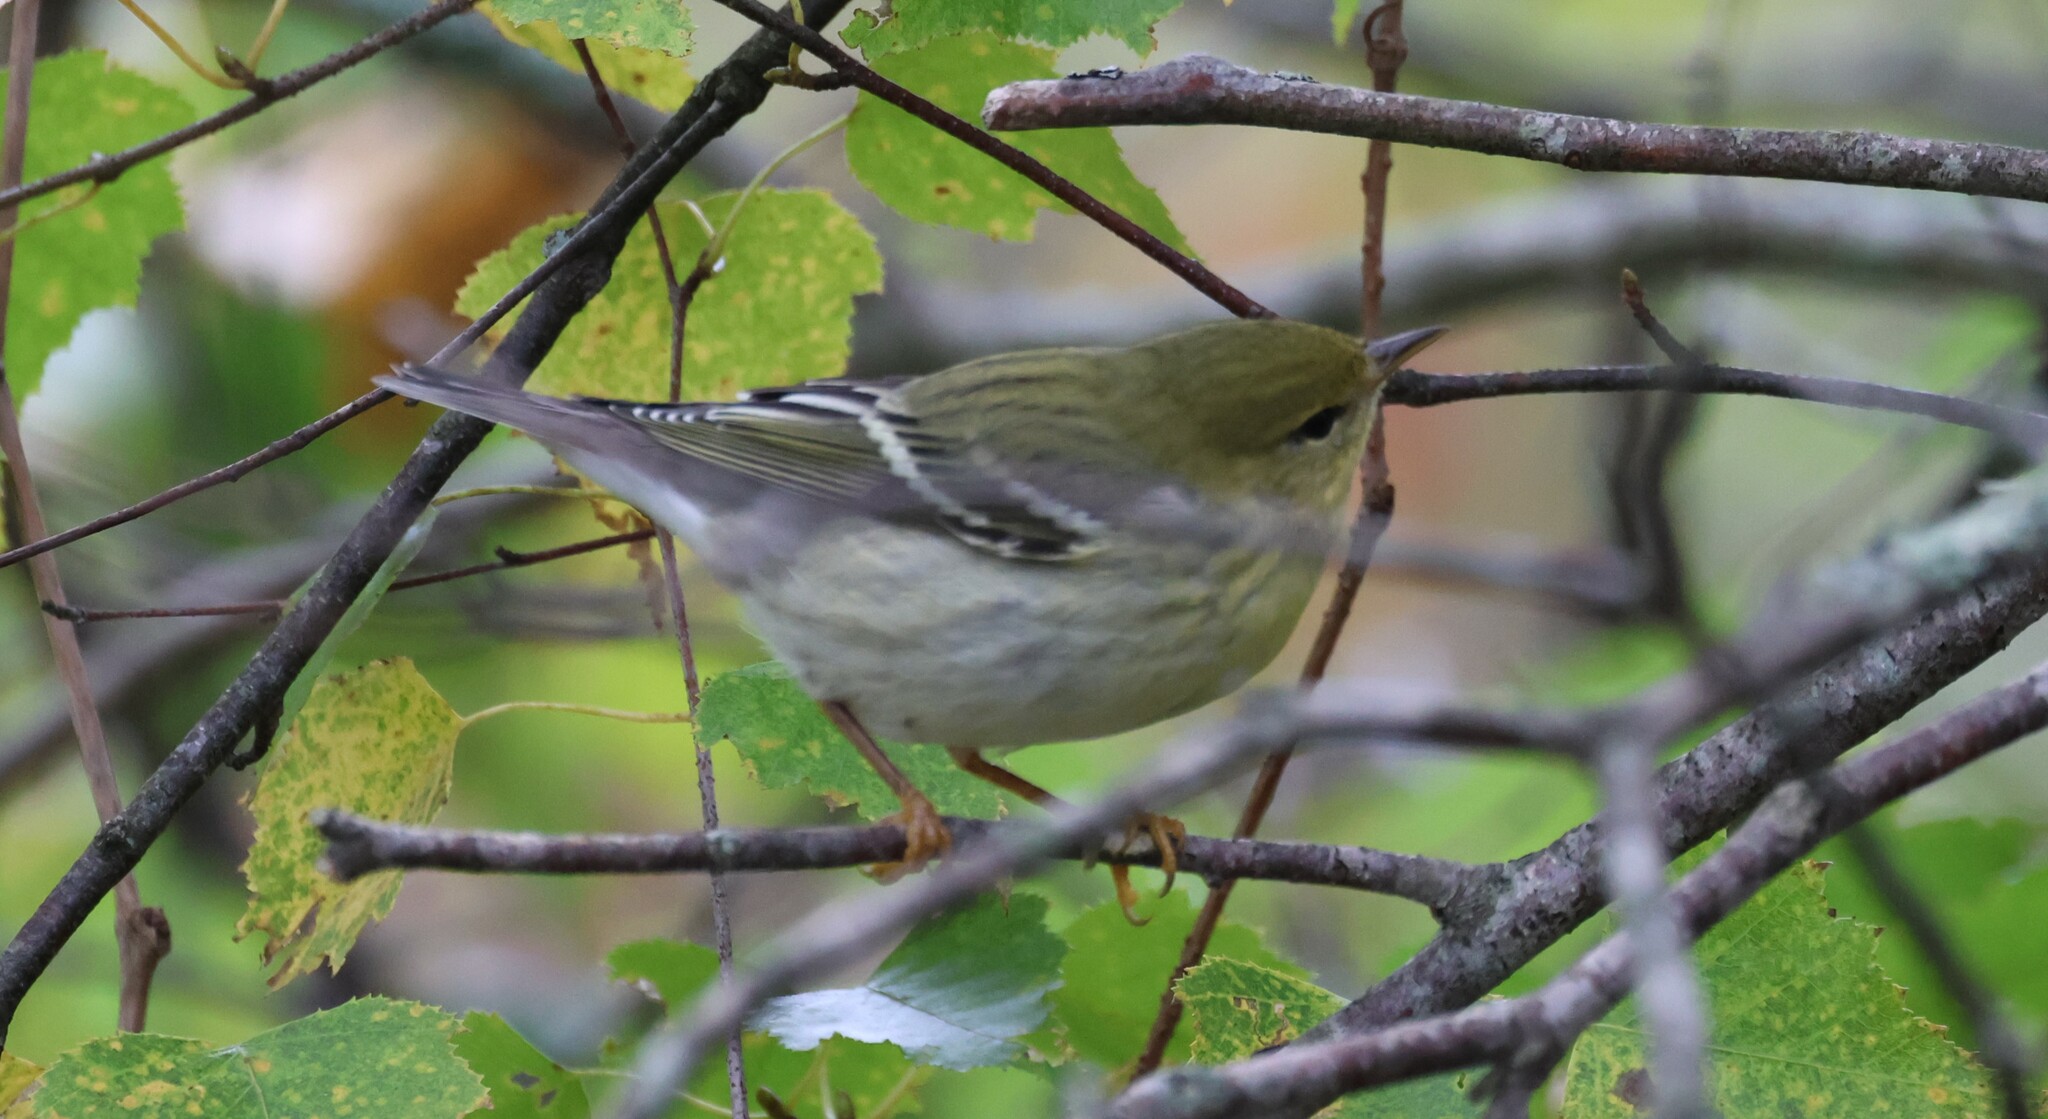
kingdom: Animalia
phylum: Chordata
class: Aves
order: Passeriformes
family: Parulidae
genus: Setophaga
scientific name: Setophaga striata
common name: Blackpoll warbler
